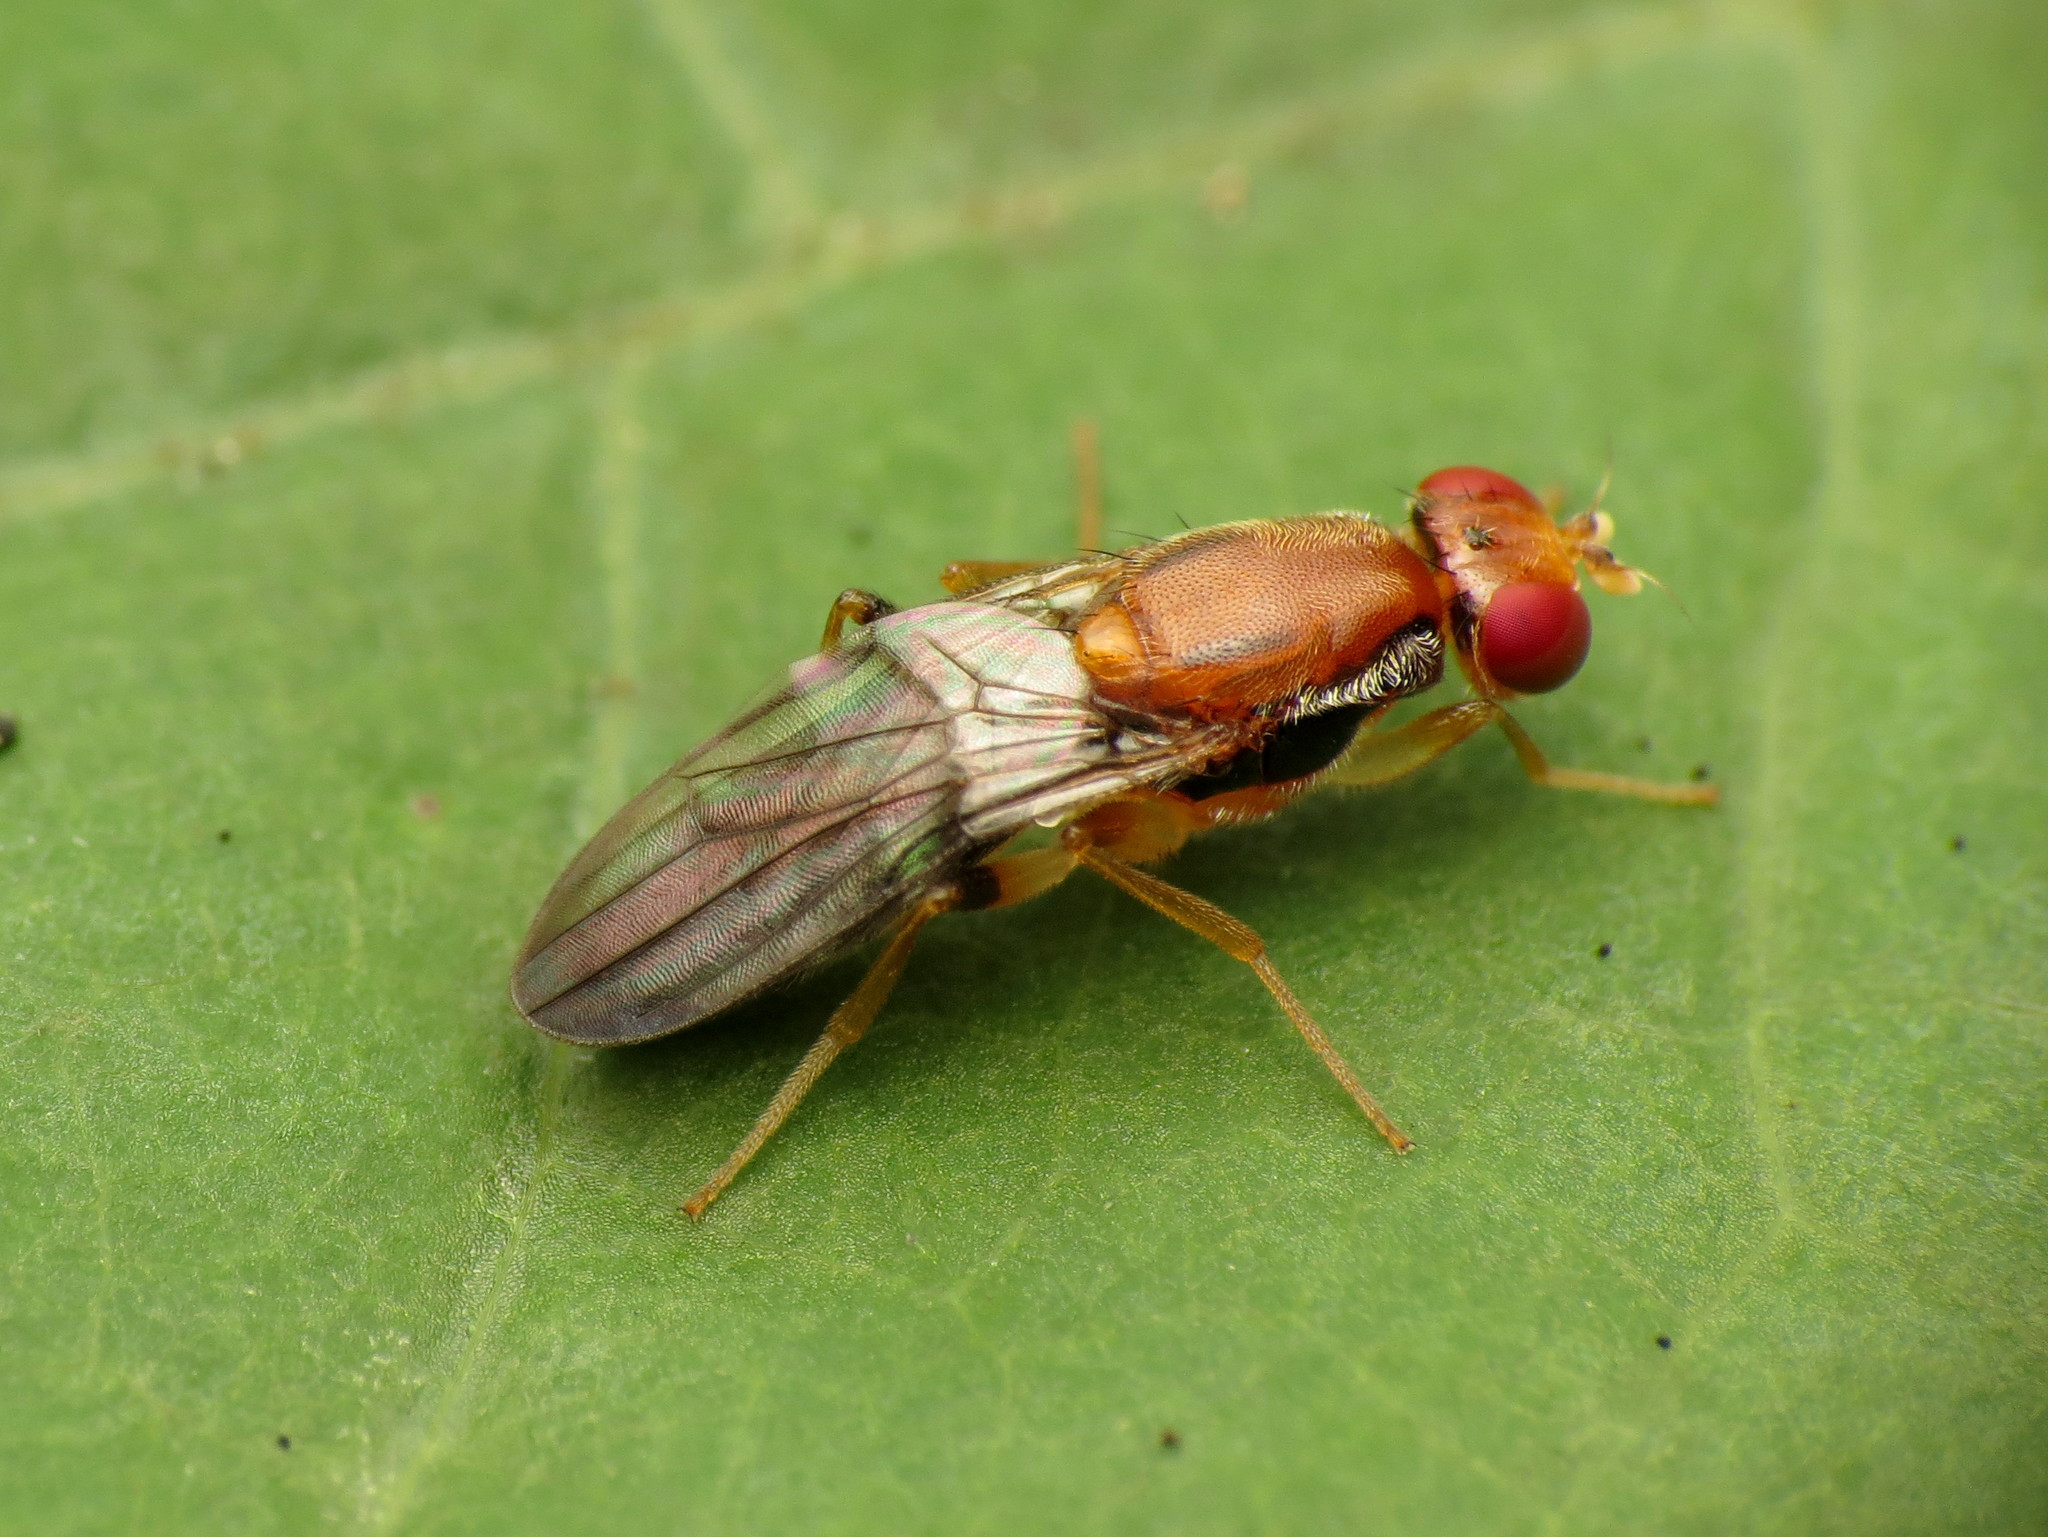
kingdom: Animalia
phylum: Arthropoda
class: Insecta
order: Diptera
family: Psilidae
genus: Chyliza
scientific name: Chyliza apicalis
